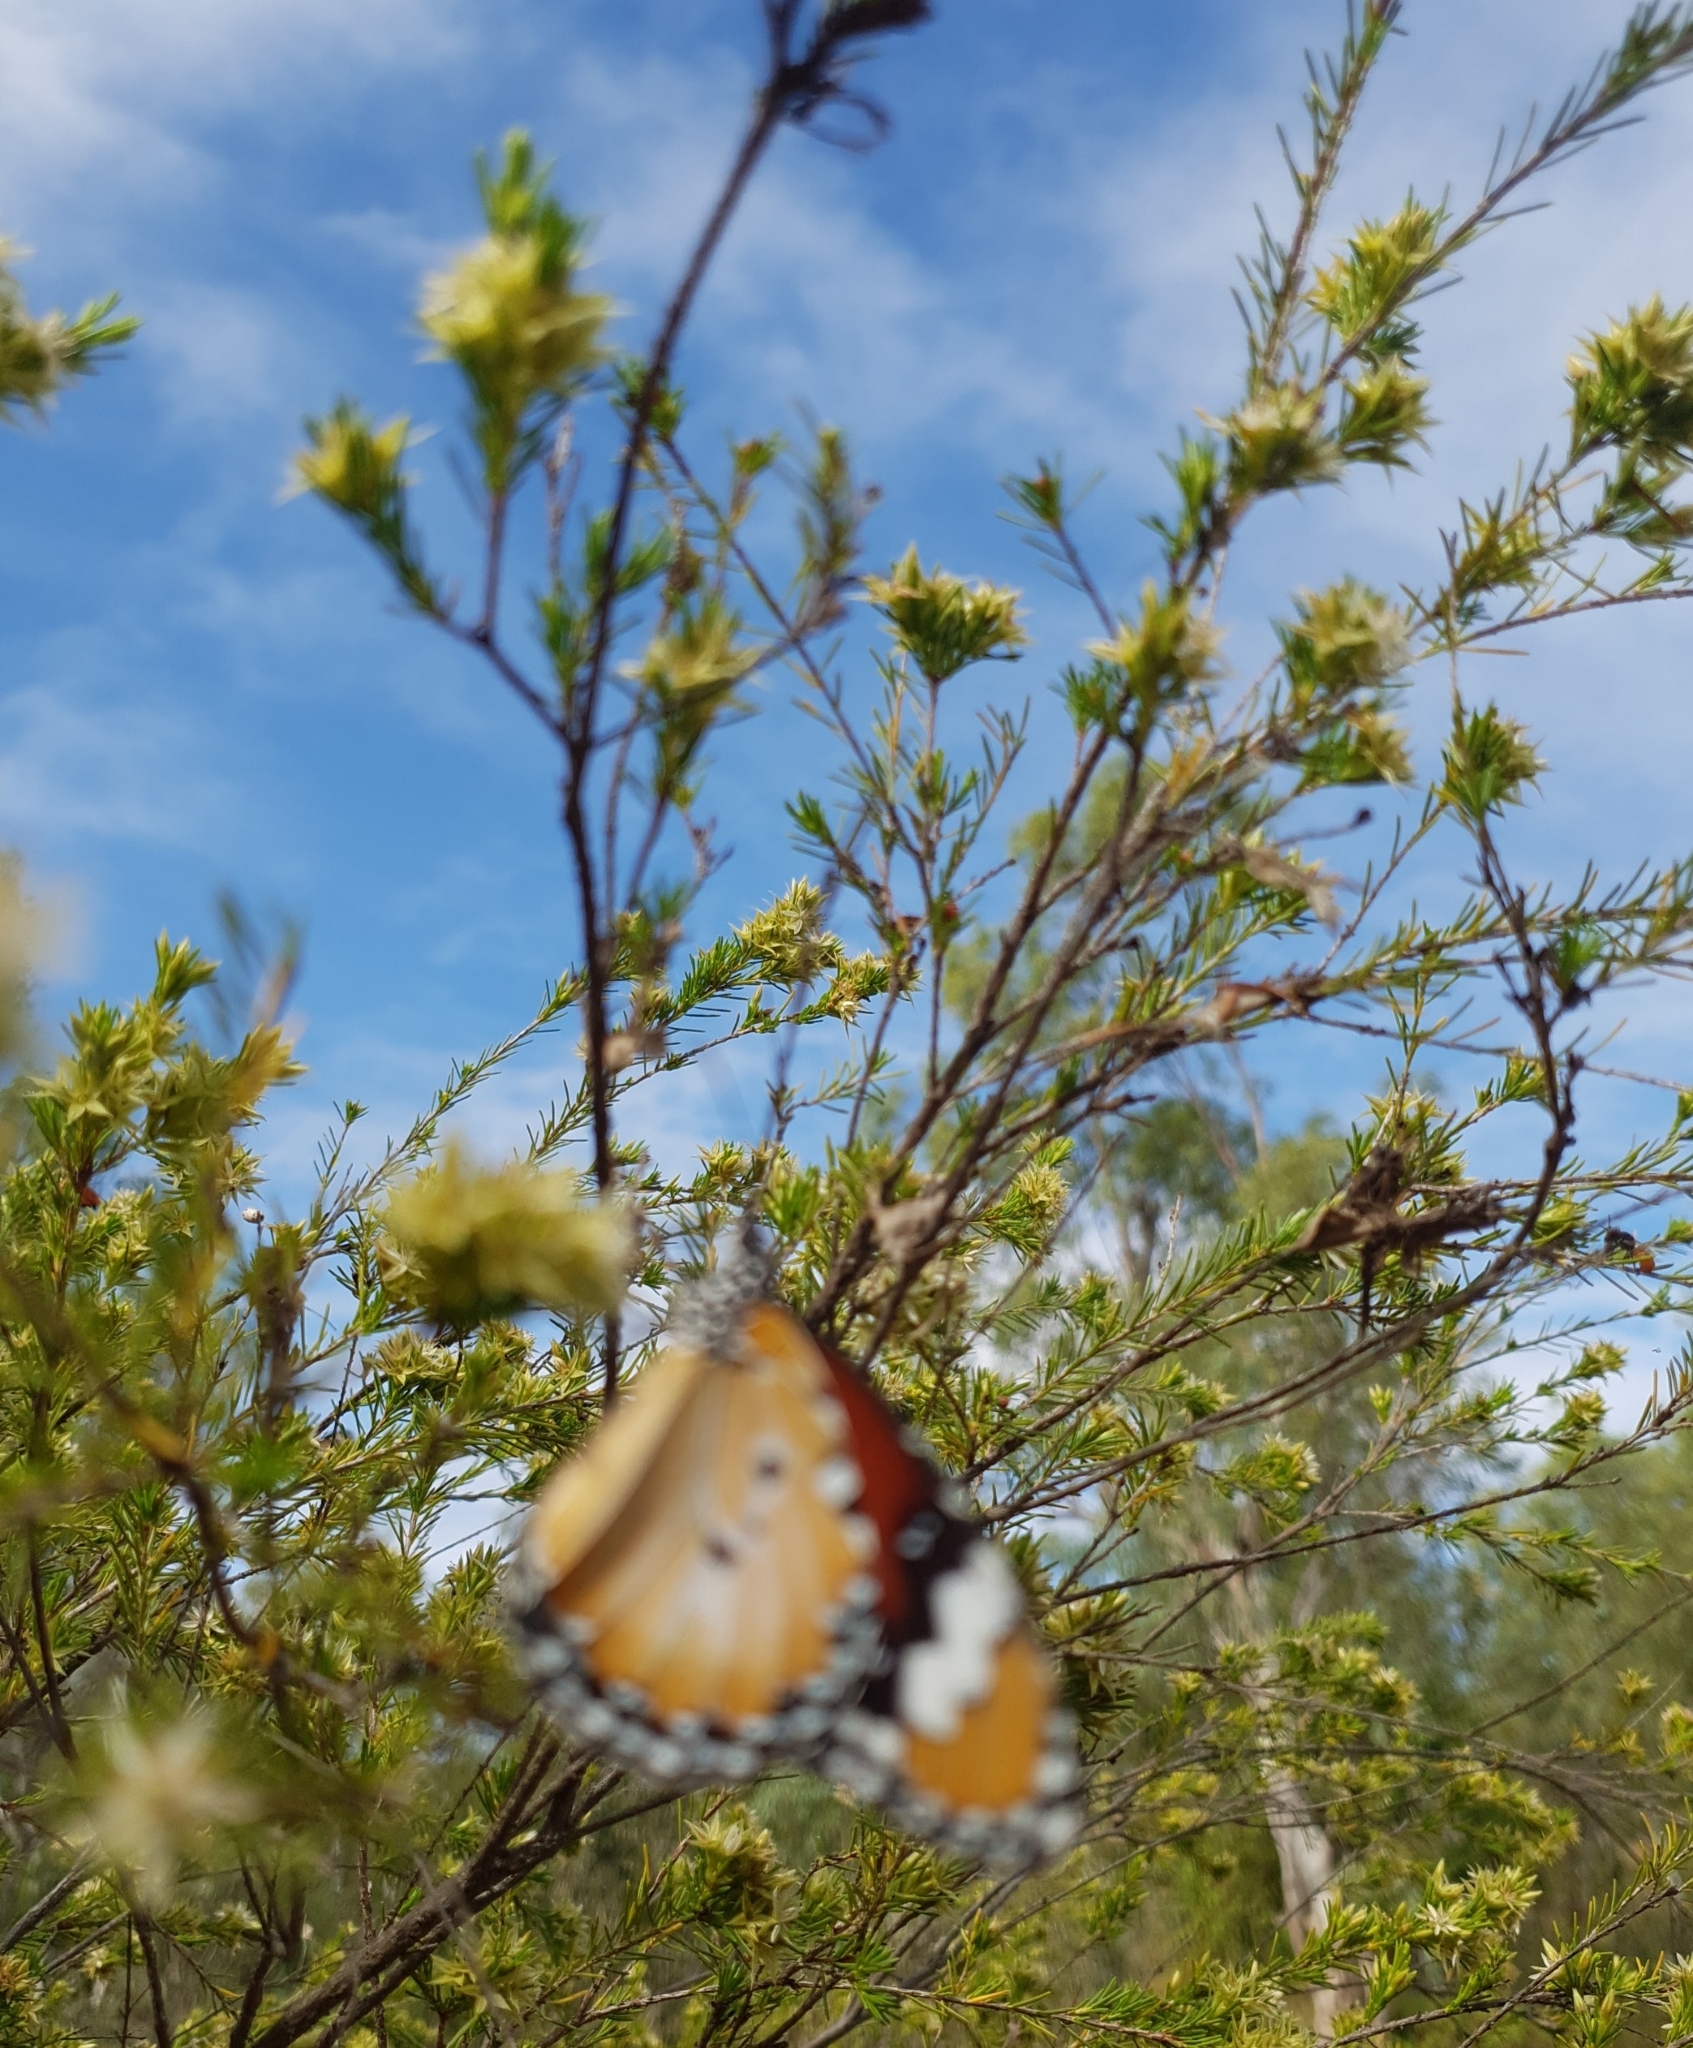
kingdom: Animalia
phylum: Arthropoda
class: Insecta
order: Lepidoptera
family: Nymphalidae
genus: Danaus
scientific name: Danaus chrysippus
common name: Plain tiger
